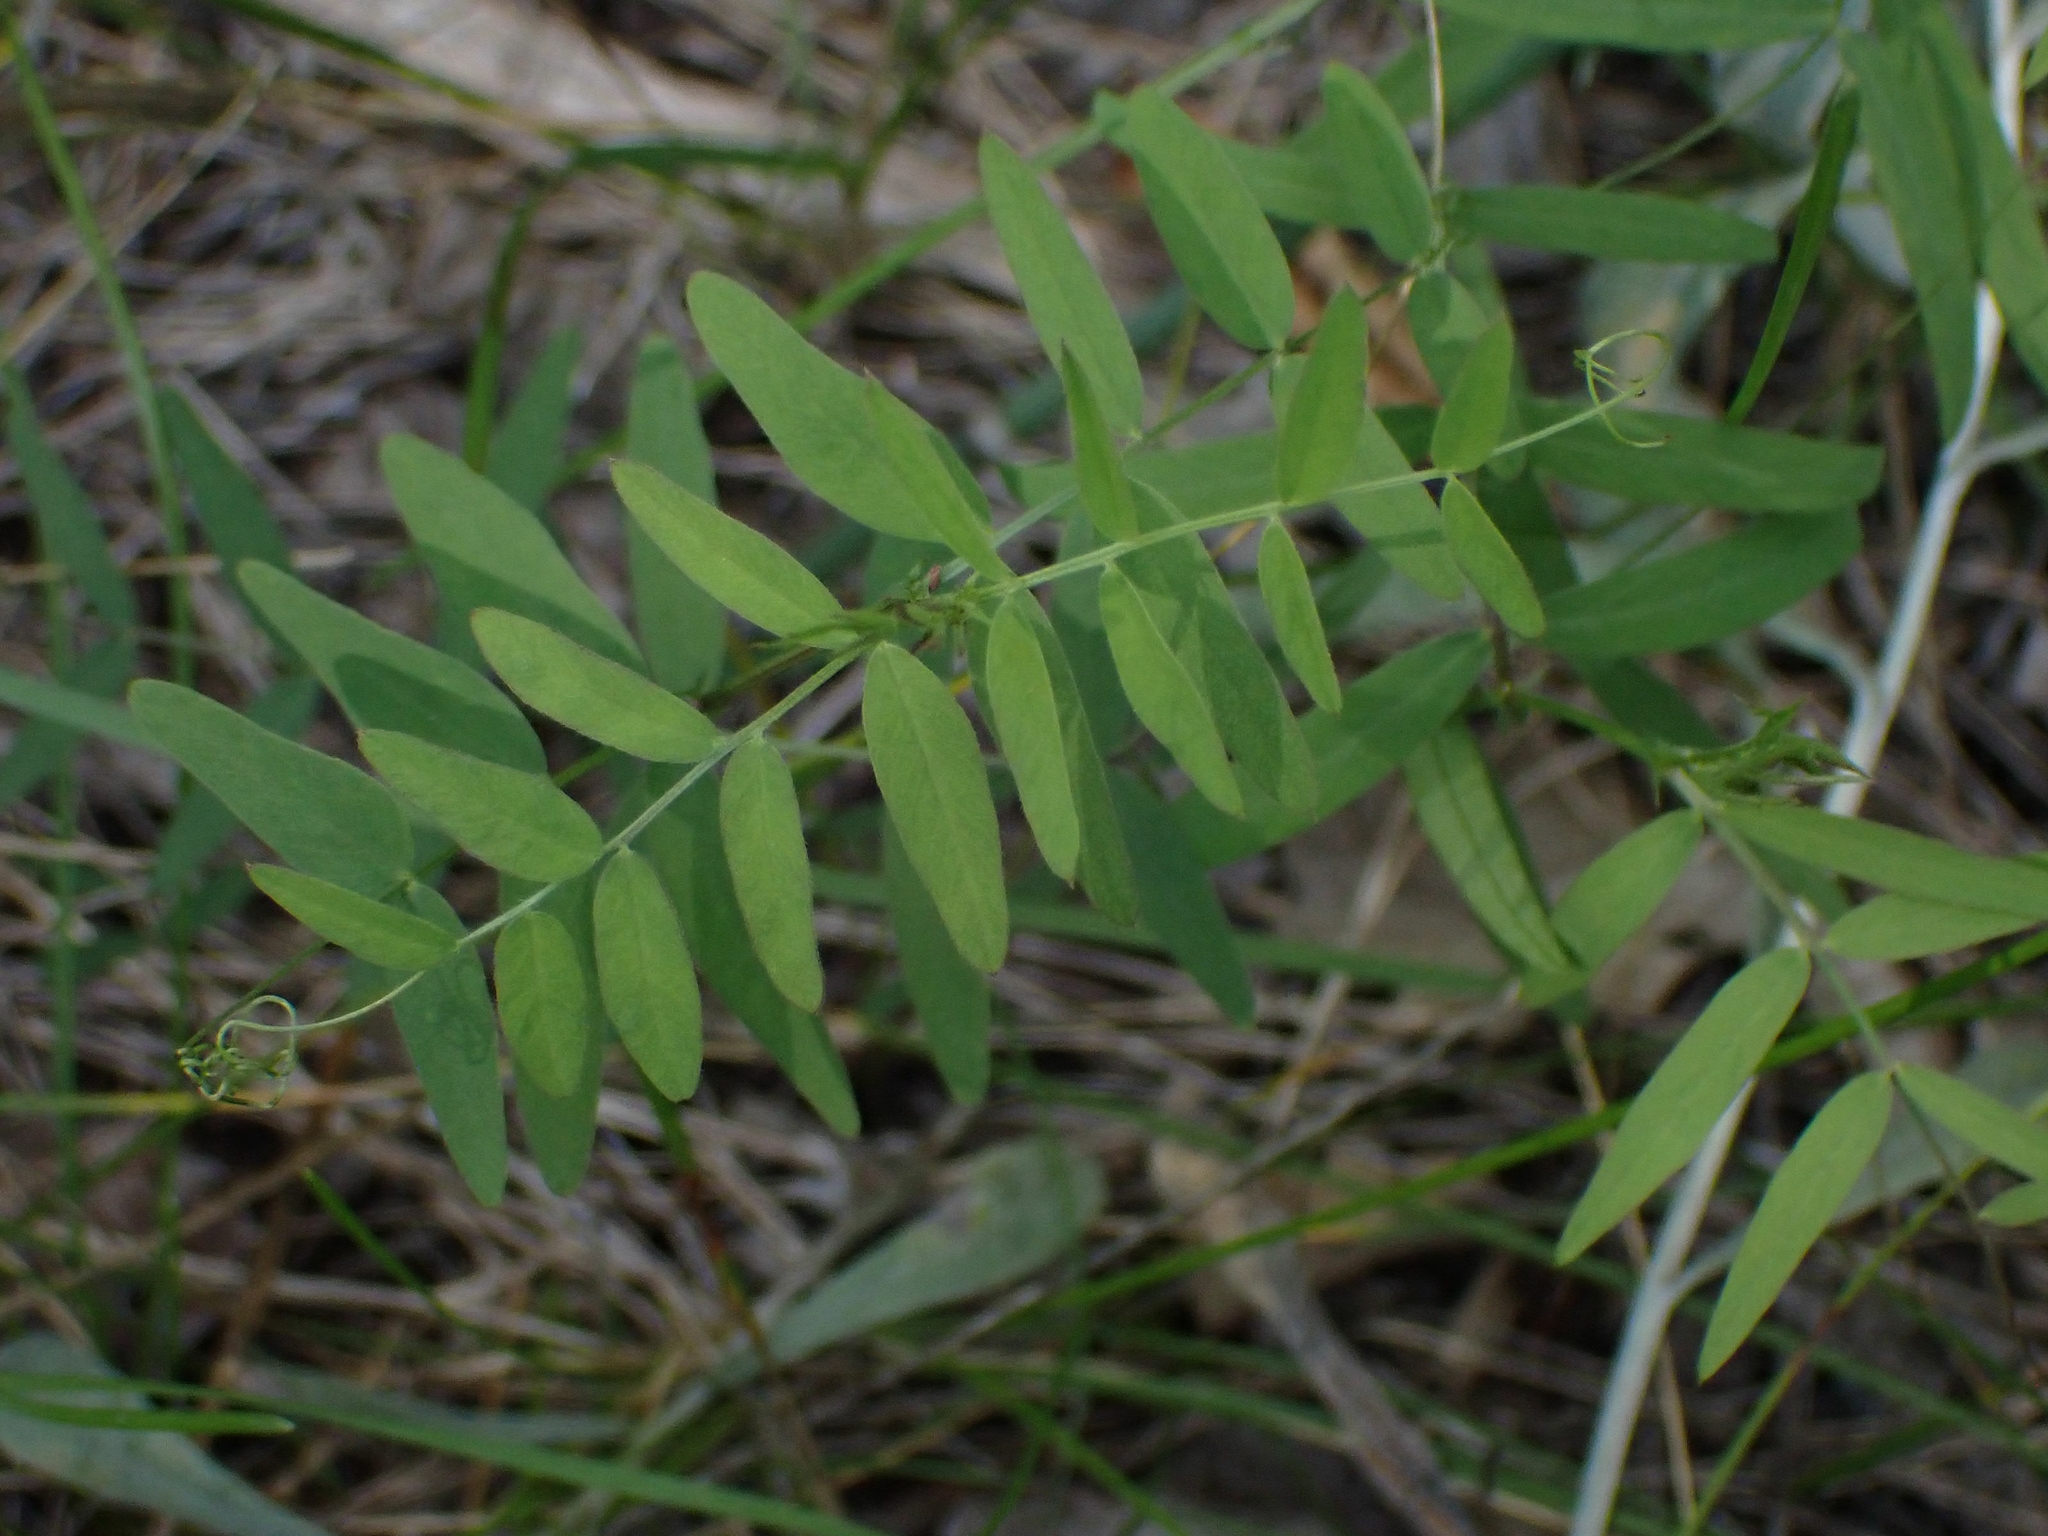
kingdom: Plantae
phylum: Tracheophyta
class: Magnoliopsida
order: Fabales
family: Fabaceae
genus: Vicia
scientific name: Vicia americana
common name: American vetch
